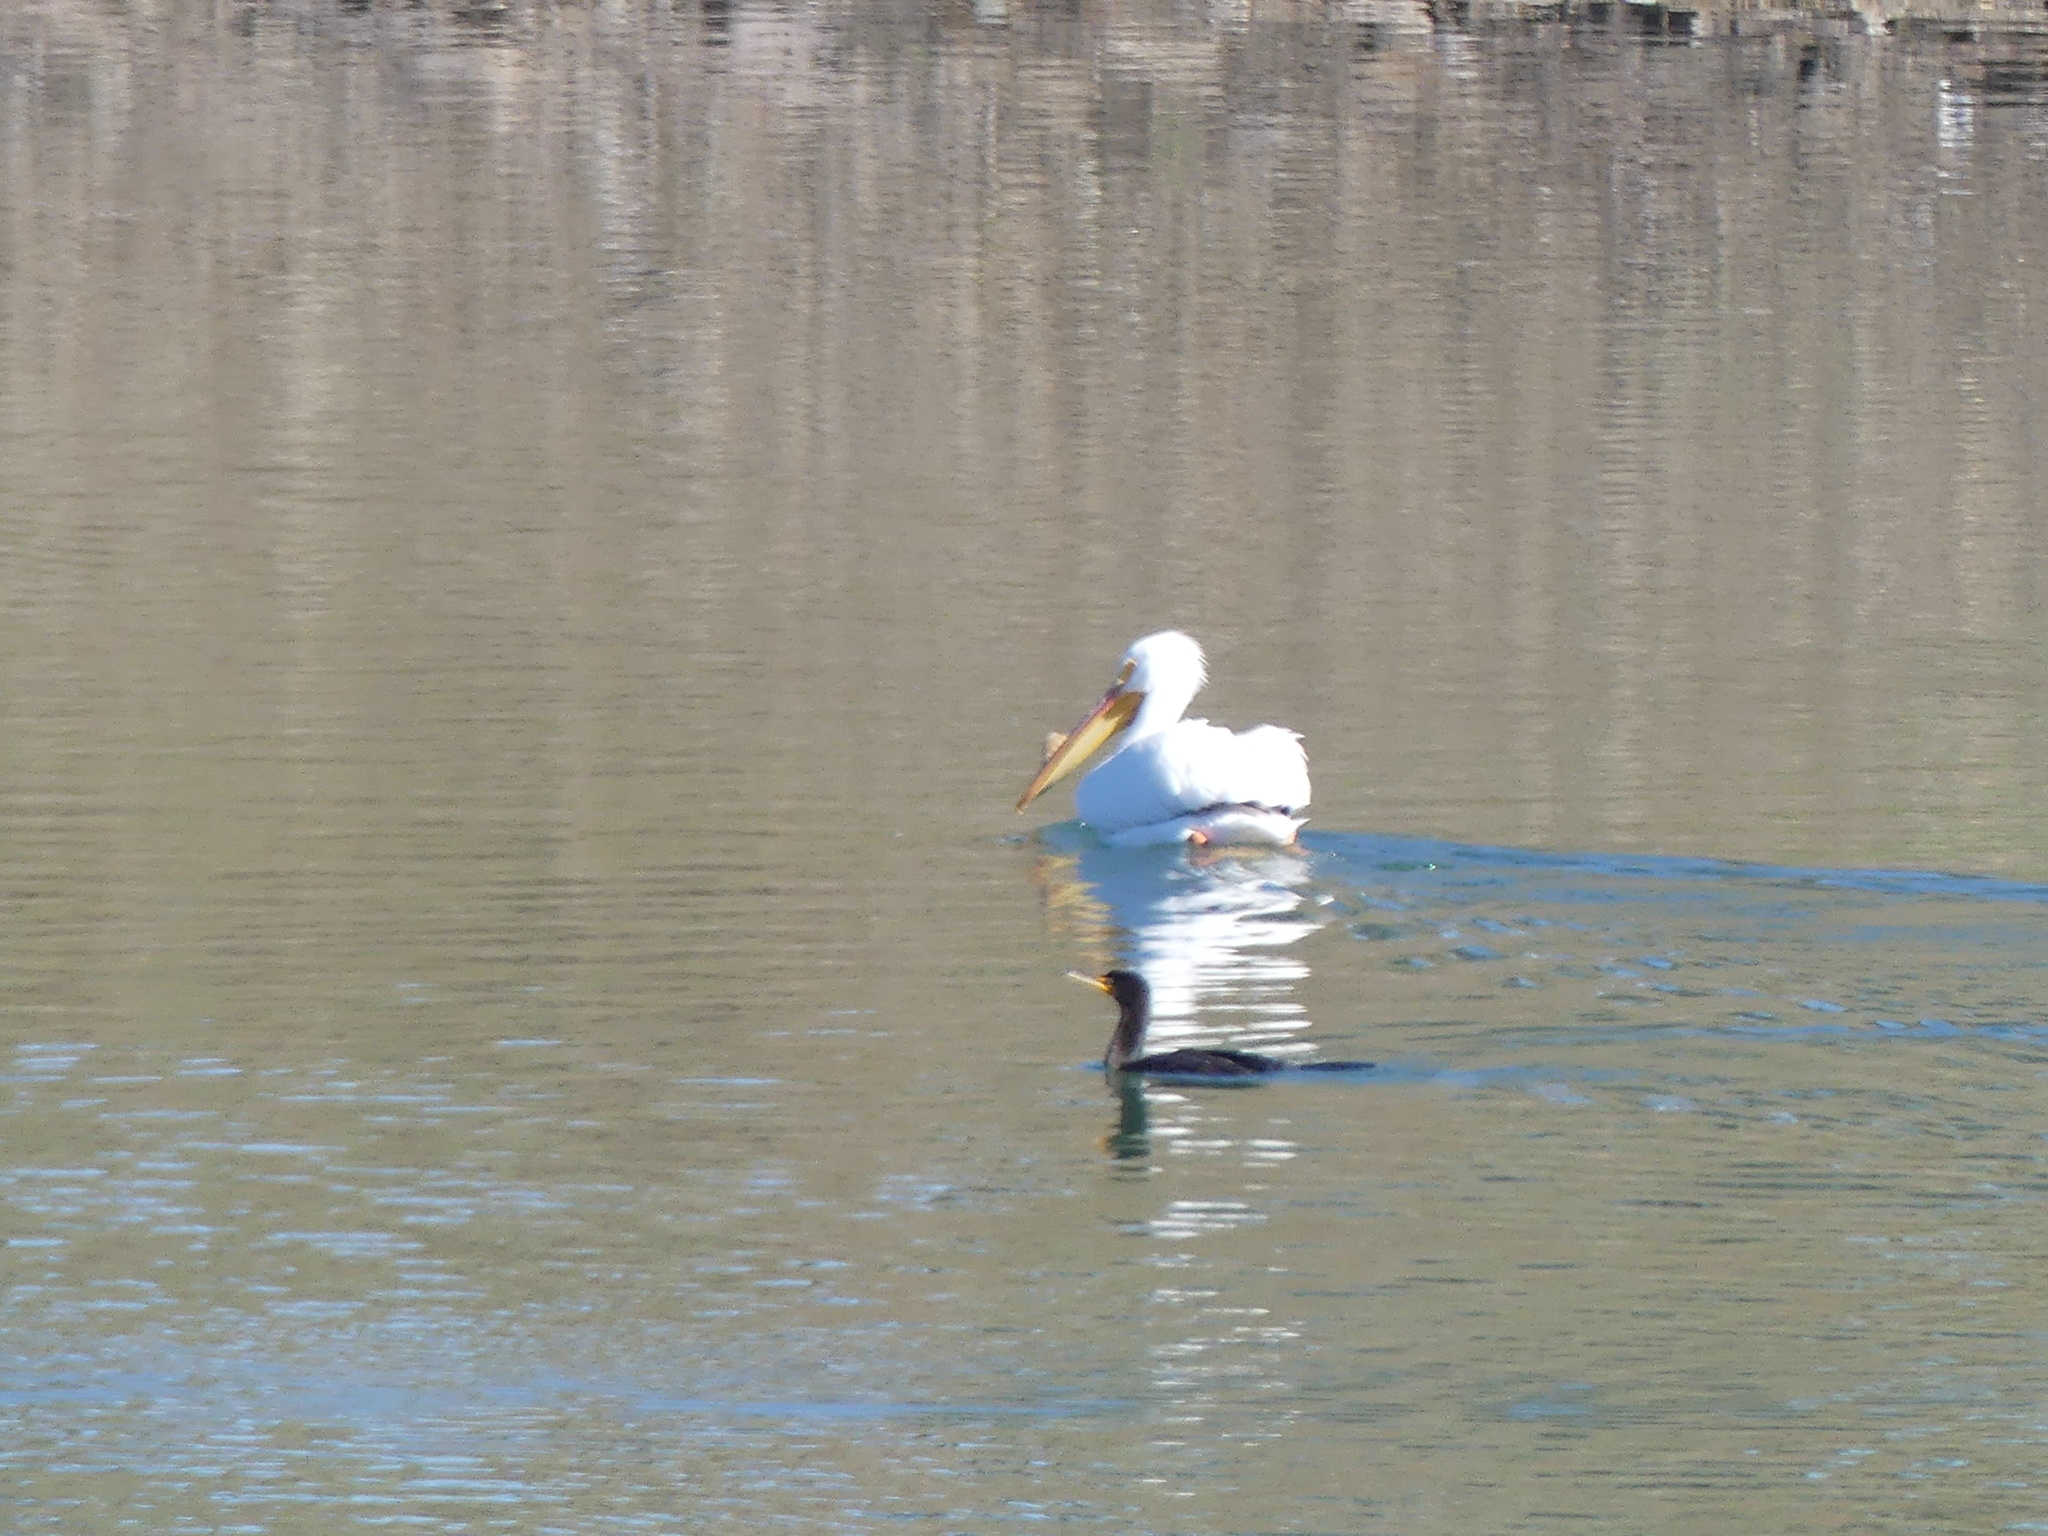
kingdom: Animalia
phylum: Chordata
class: Aves
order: Suliformes
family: Phalacrocoracidae
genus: Phalacrocorax
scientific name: Phalacrocorax auritus
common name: Double-crested cormorant
